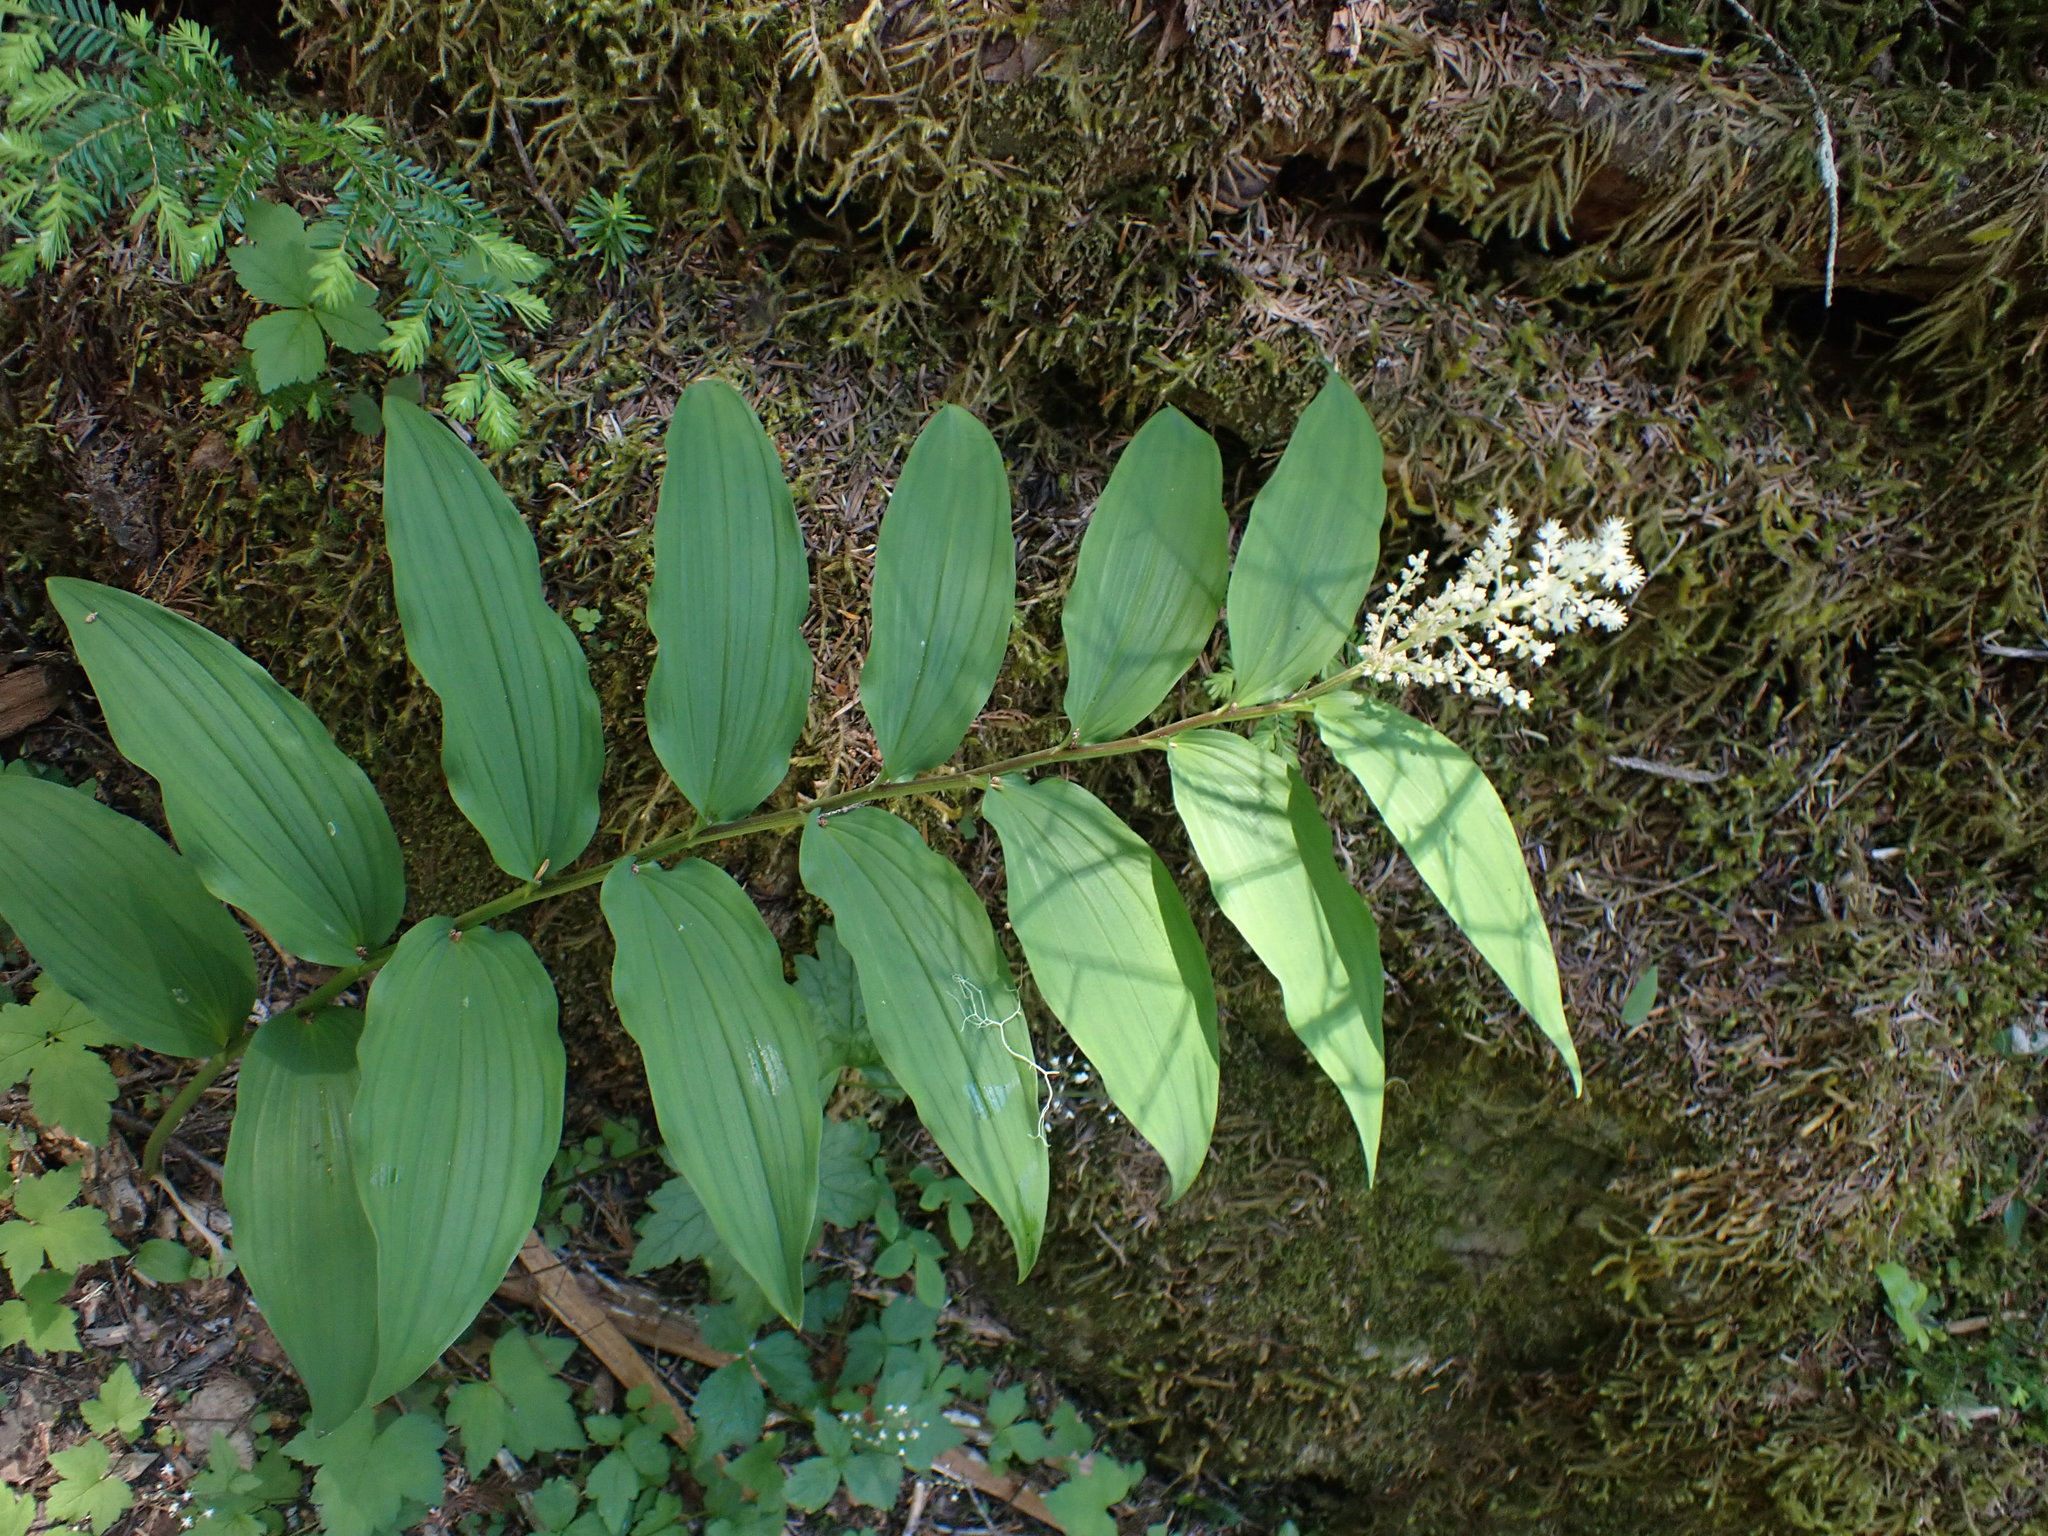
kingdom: Plantae
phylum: Tracheophyta
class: Liliopsida
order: Asparagales
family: Asparagaceae
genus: Maianthemum
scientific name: Maianthemum racemosum
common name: False spikenard
